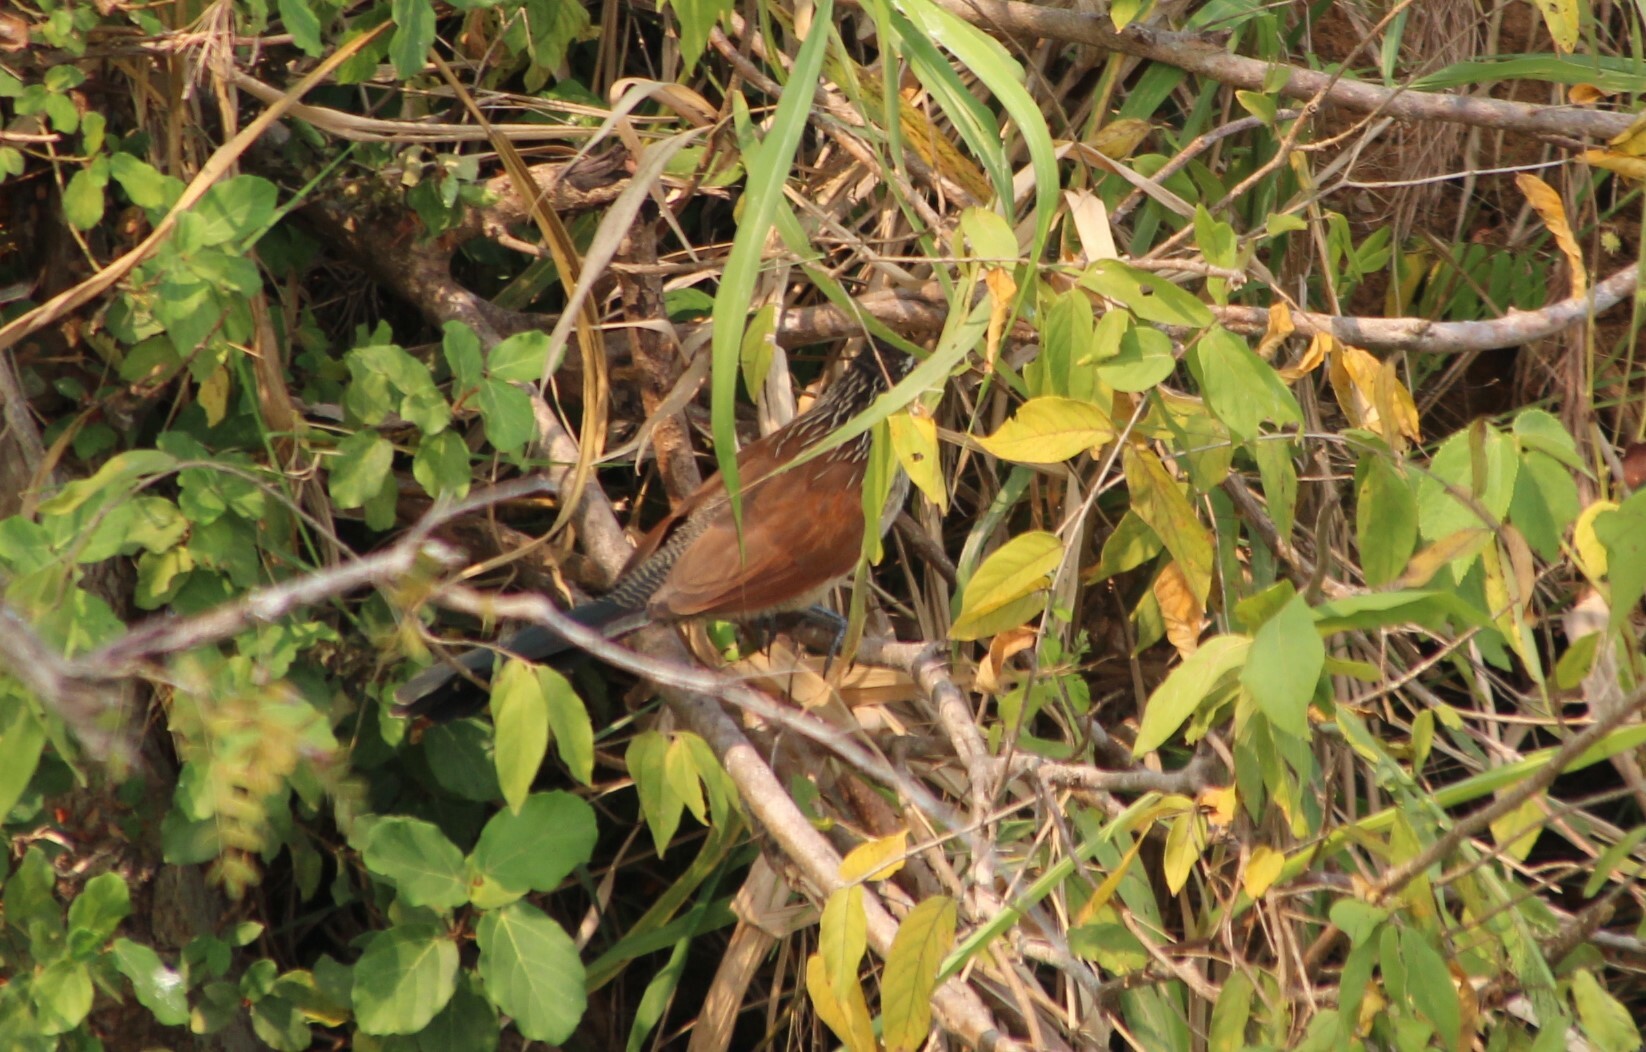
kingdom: Animalia
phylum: Chordata
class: Aves
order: Cuculiformes
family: Cuculidae
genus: Centropus
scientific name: Centropus superciliosus
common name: White-browed coucal
